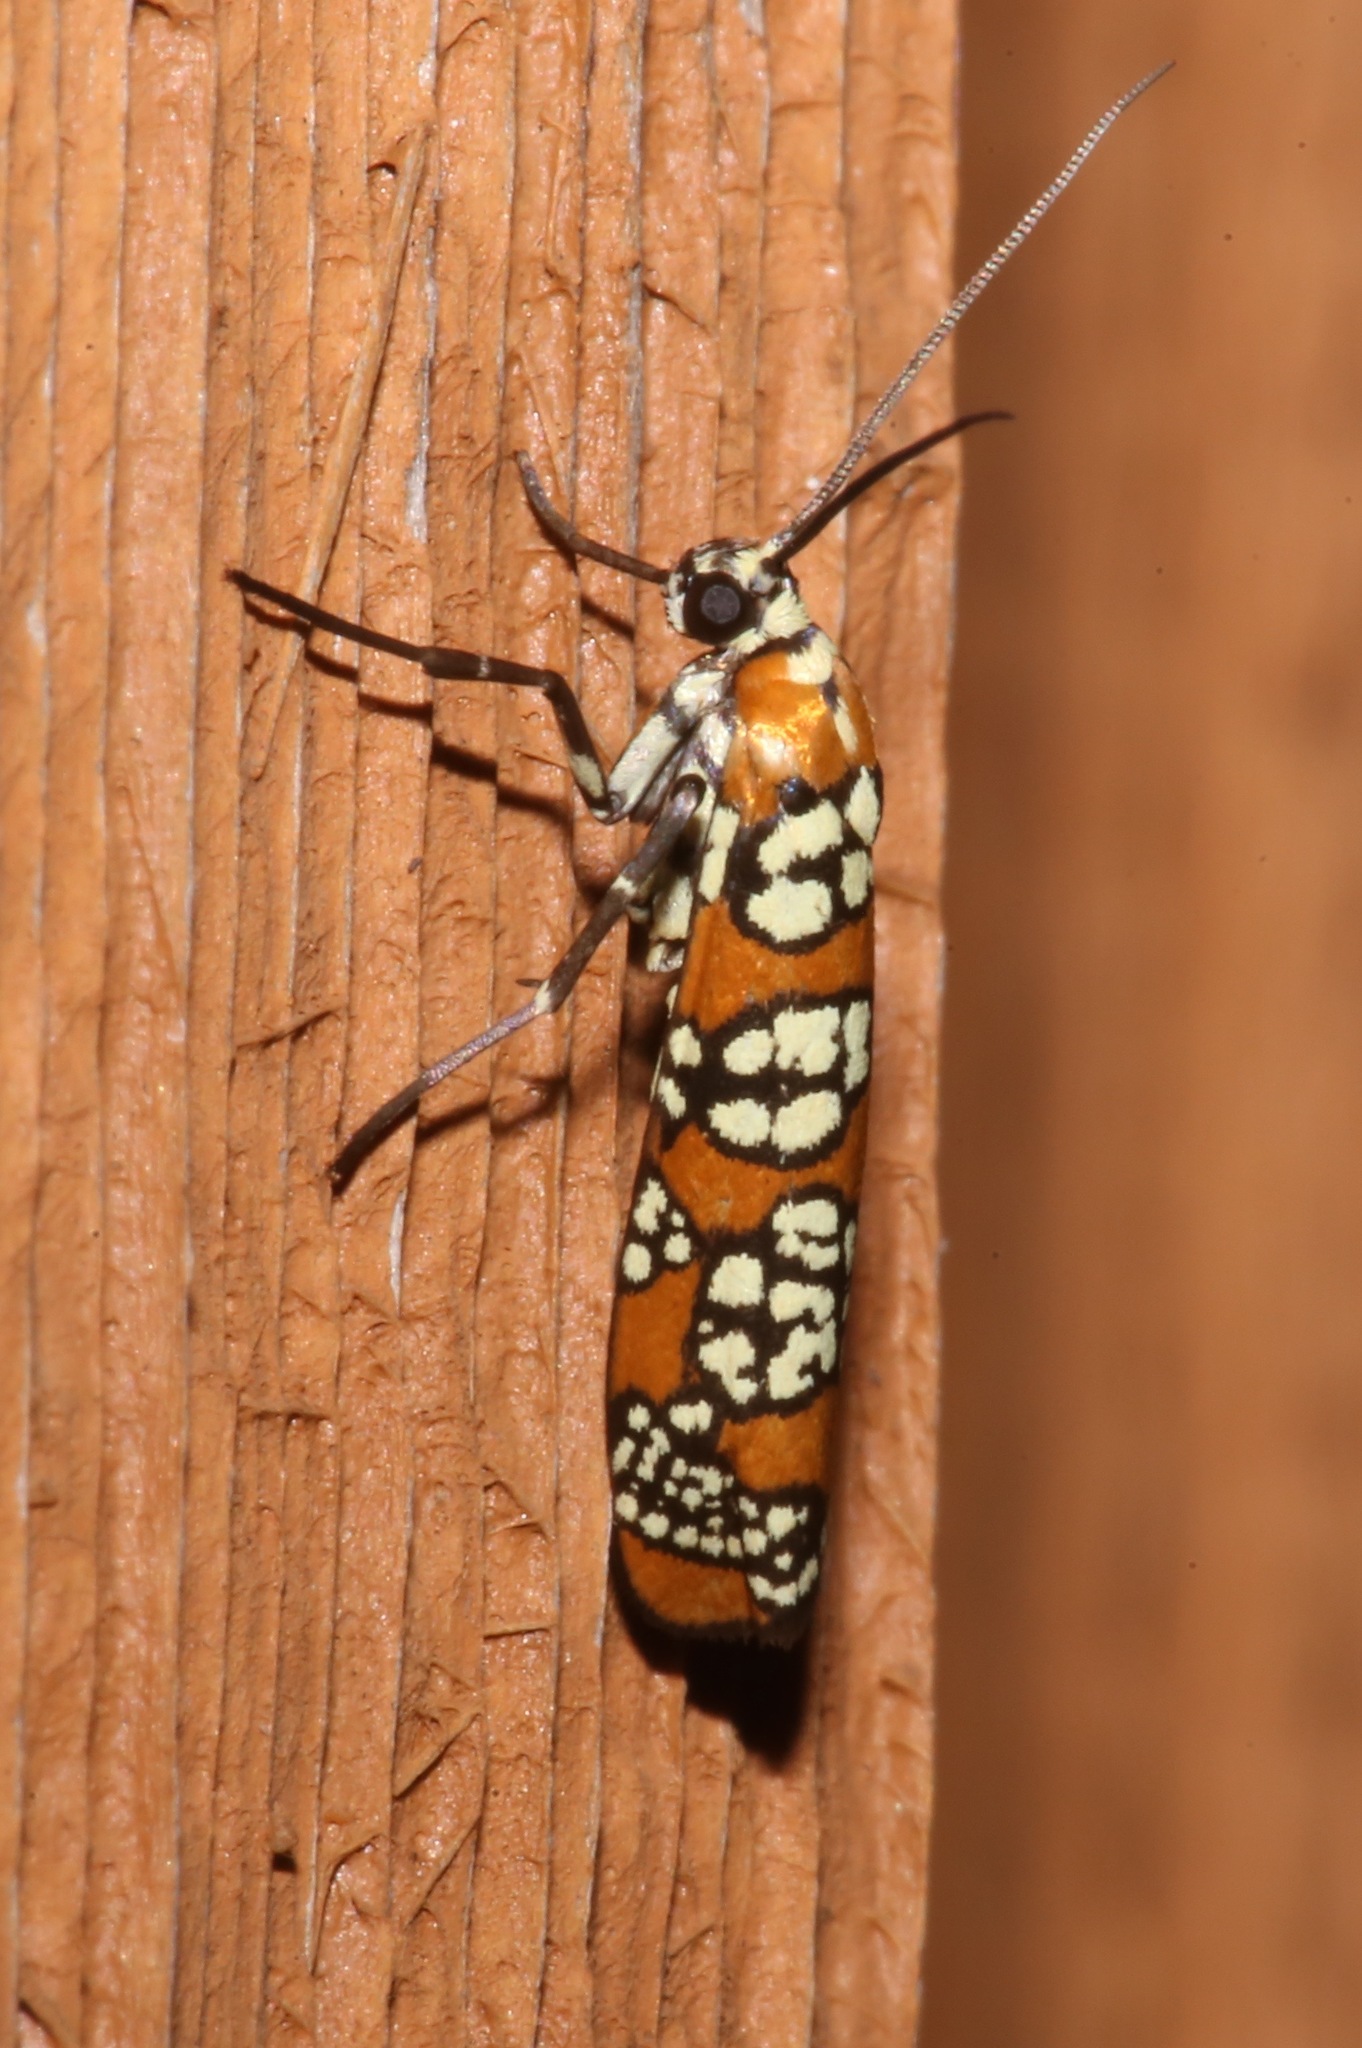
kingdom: Animalia
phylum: Arthropoda
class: Insecta
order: Lepidoptera
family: Attevidae
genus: Atteva
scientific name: Atteva punctella
